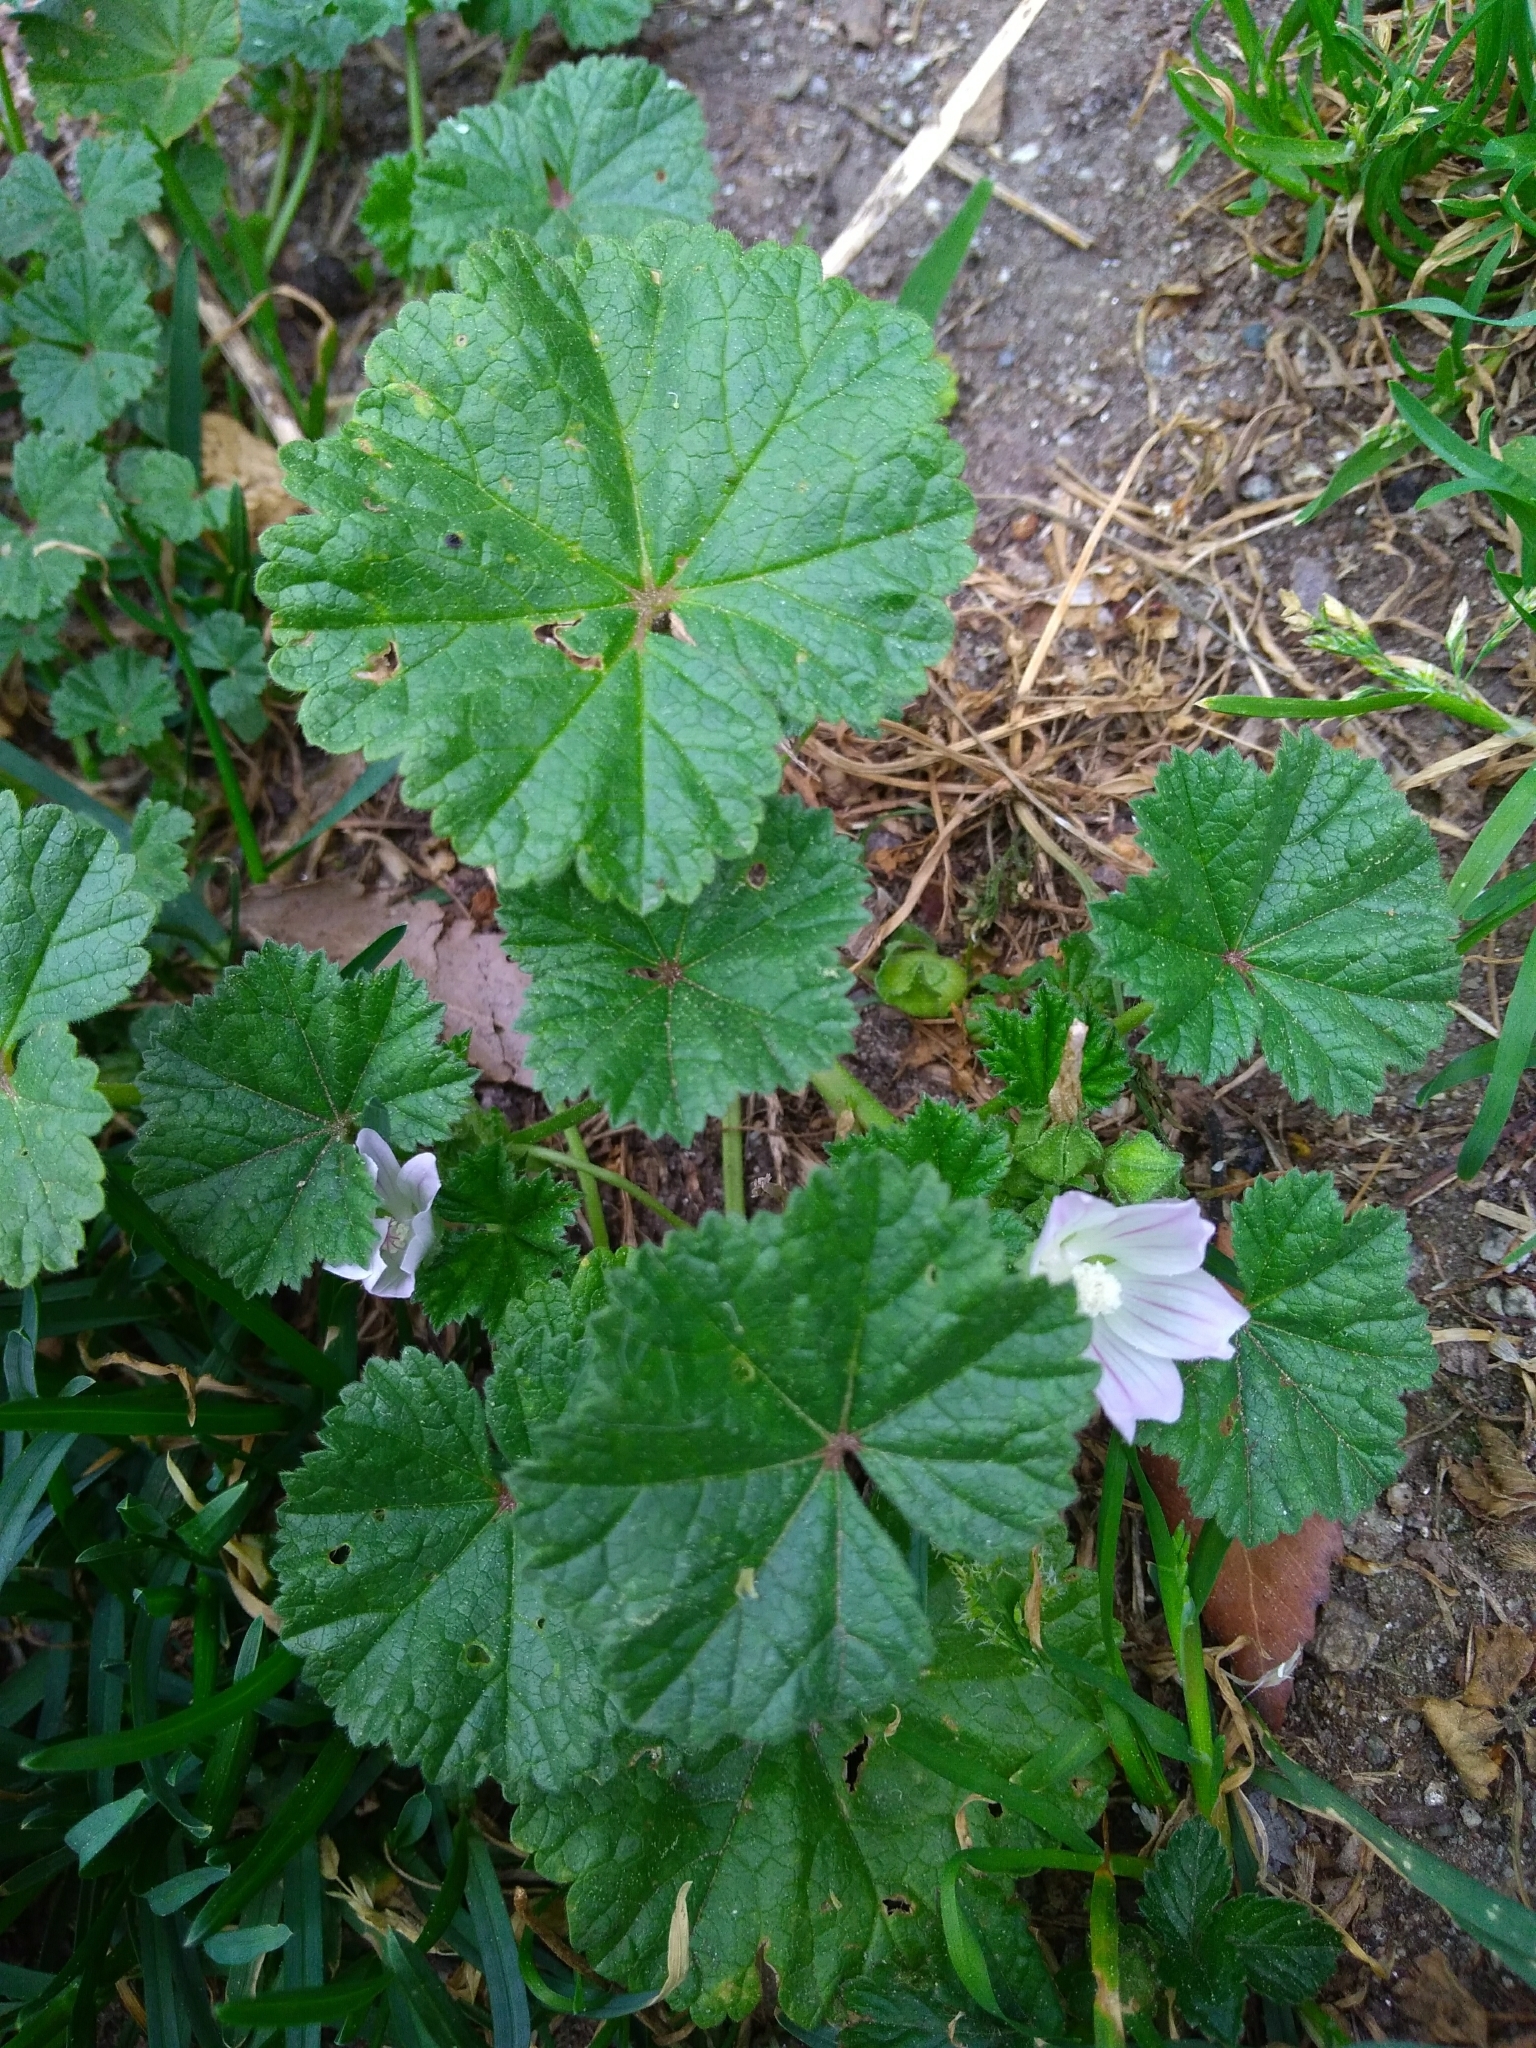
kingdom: Plantae
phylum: Tracheophyta
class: Magnoliopsida
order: Malvales
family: Malvaceae
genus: Malva
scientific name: Malva neglecta
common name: Common mallow
